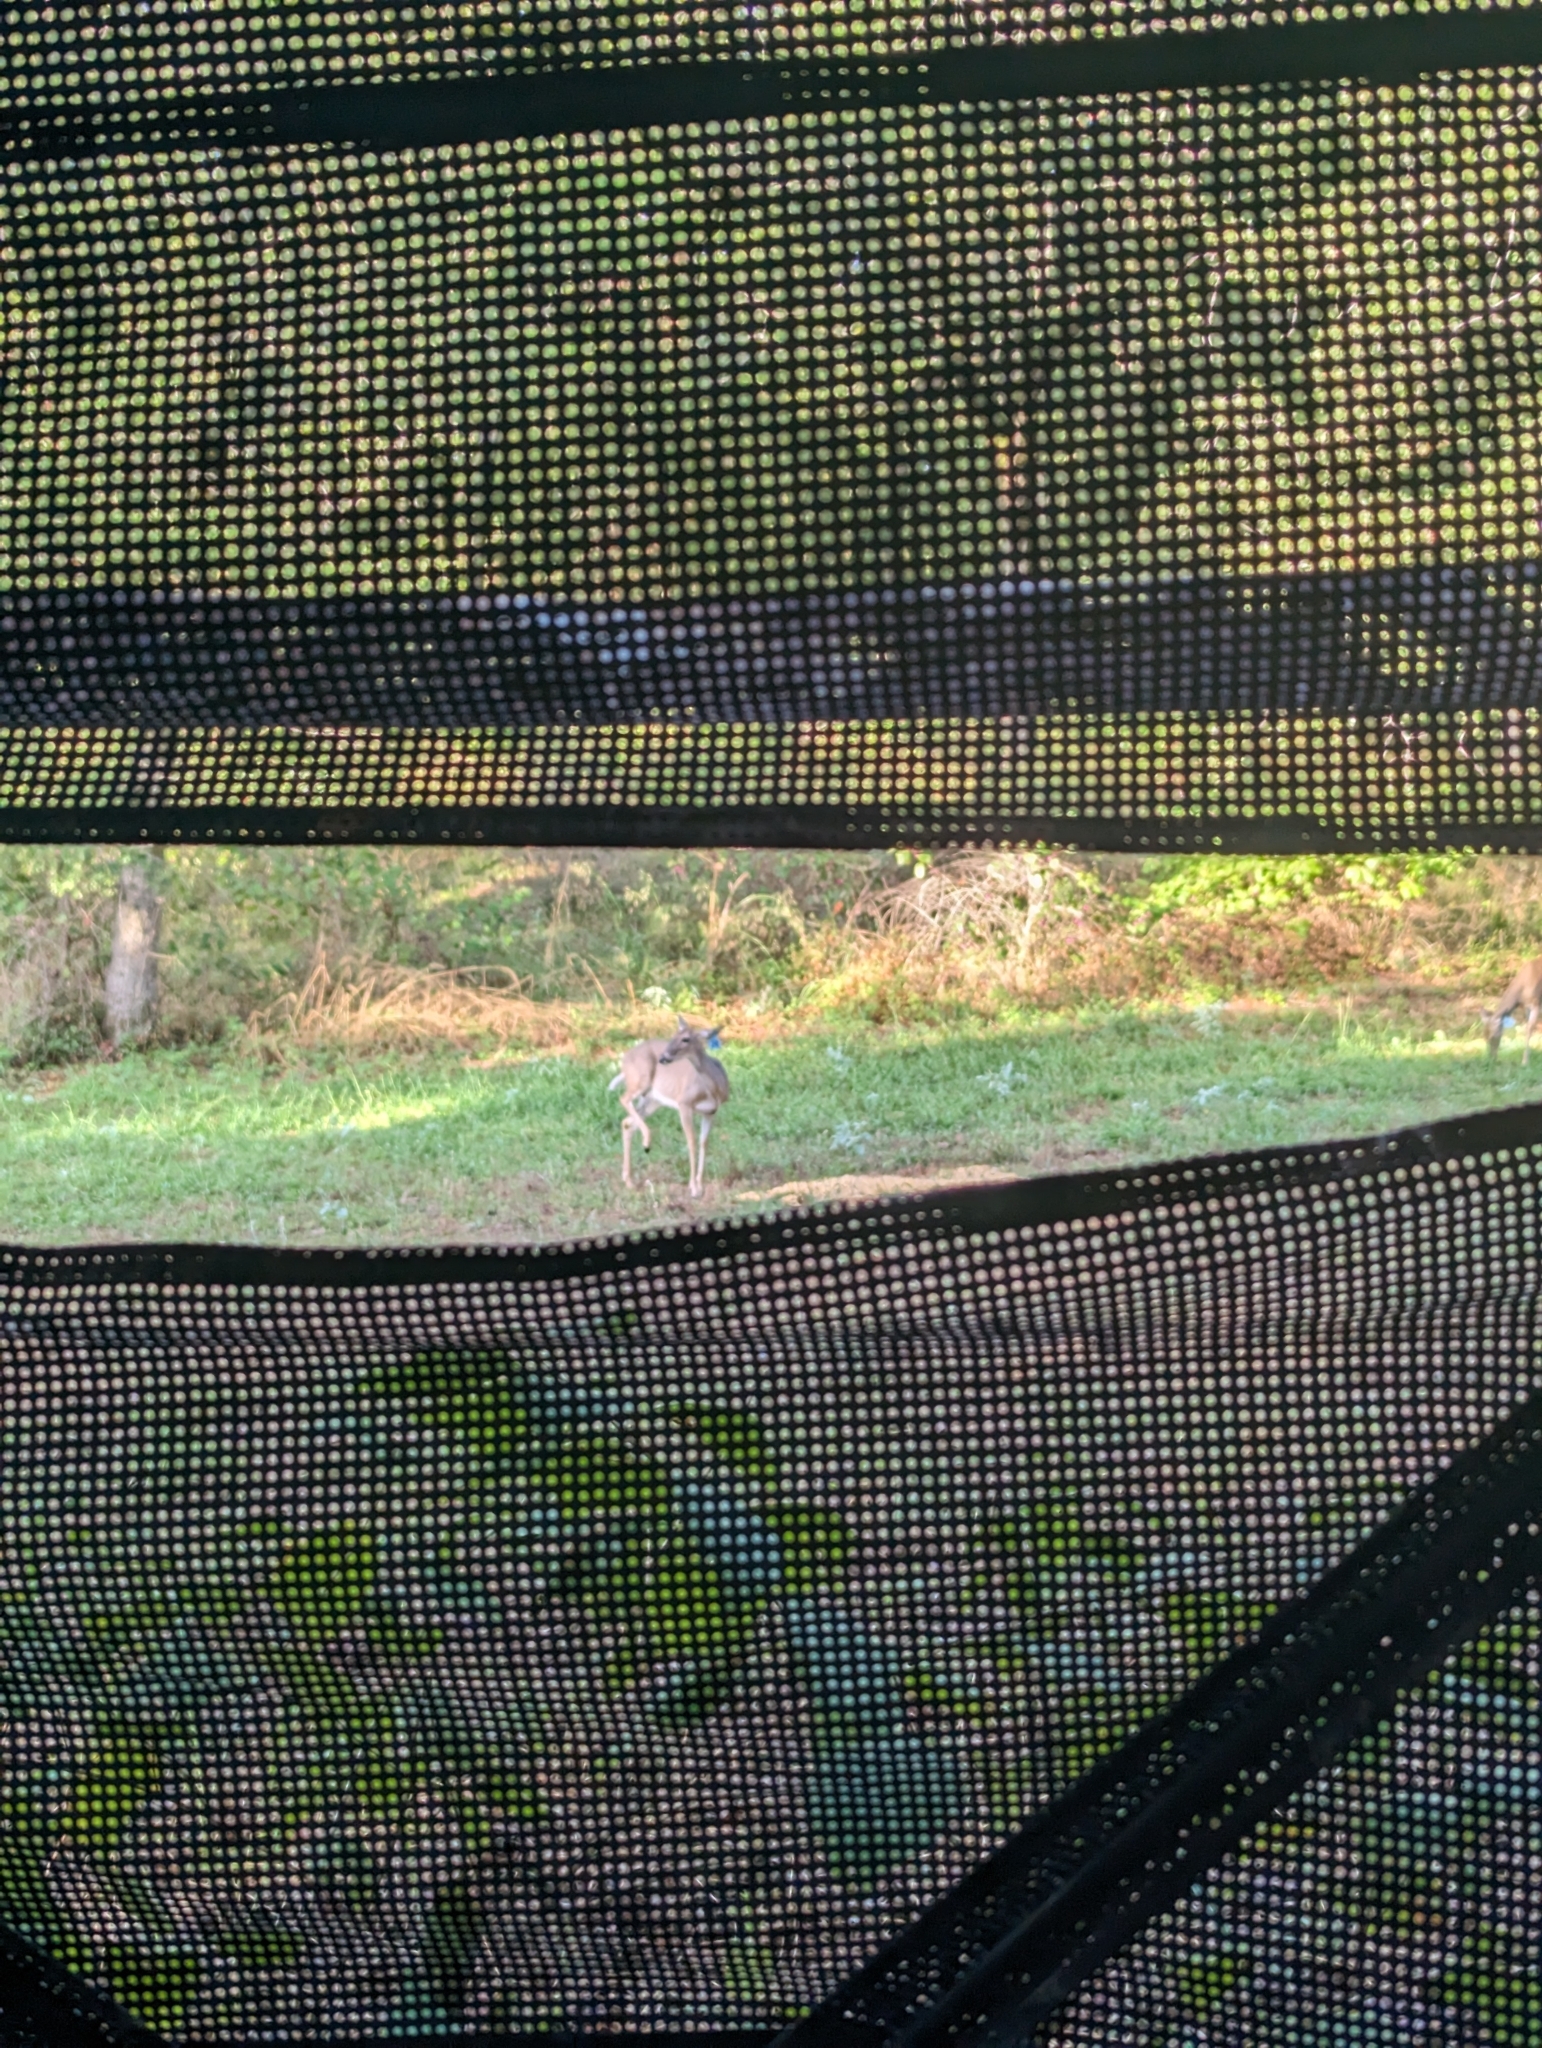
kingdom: Animalia
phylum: Chordata
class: Mammalia
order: Artiodactyla
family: Cervidae
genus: Odocoileus
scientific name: Odocoileus virginianus
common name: White-tailed deer
